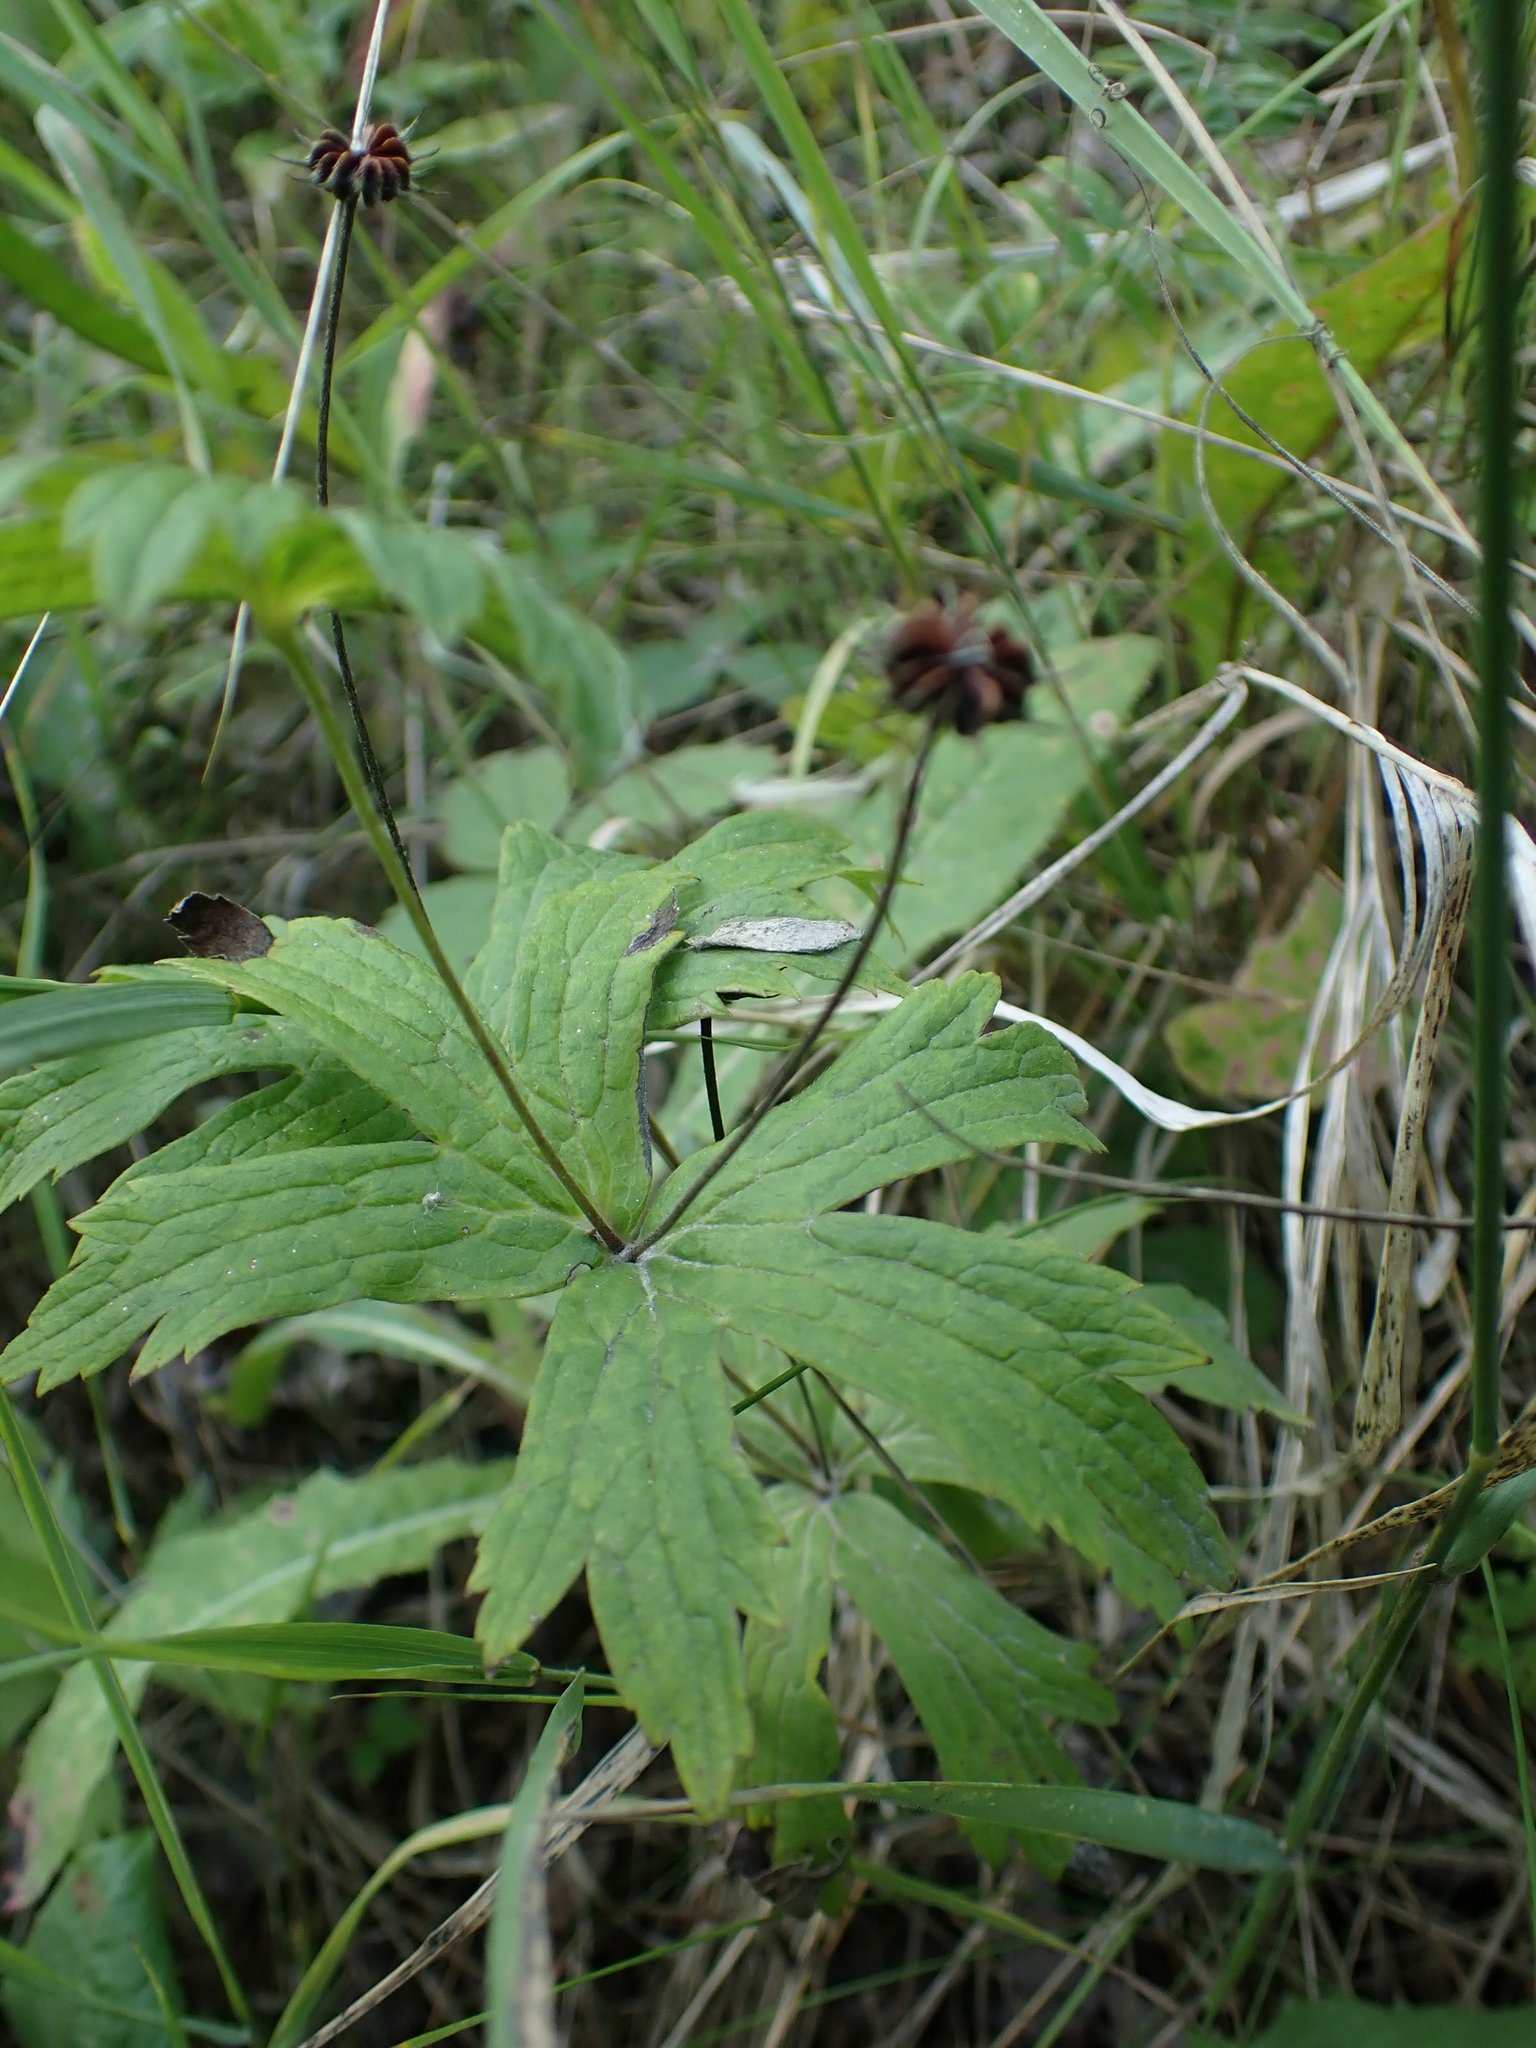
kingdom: Plantae
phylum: Tracheophyta
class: Magnoliopsida
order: Ranunculales
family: Ranunculaceae
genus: Anemonastrum
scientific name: Anemonastrum canadense
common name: Canada anemone
